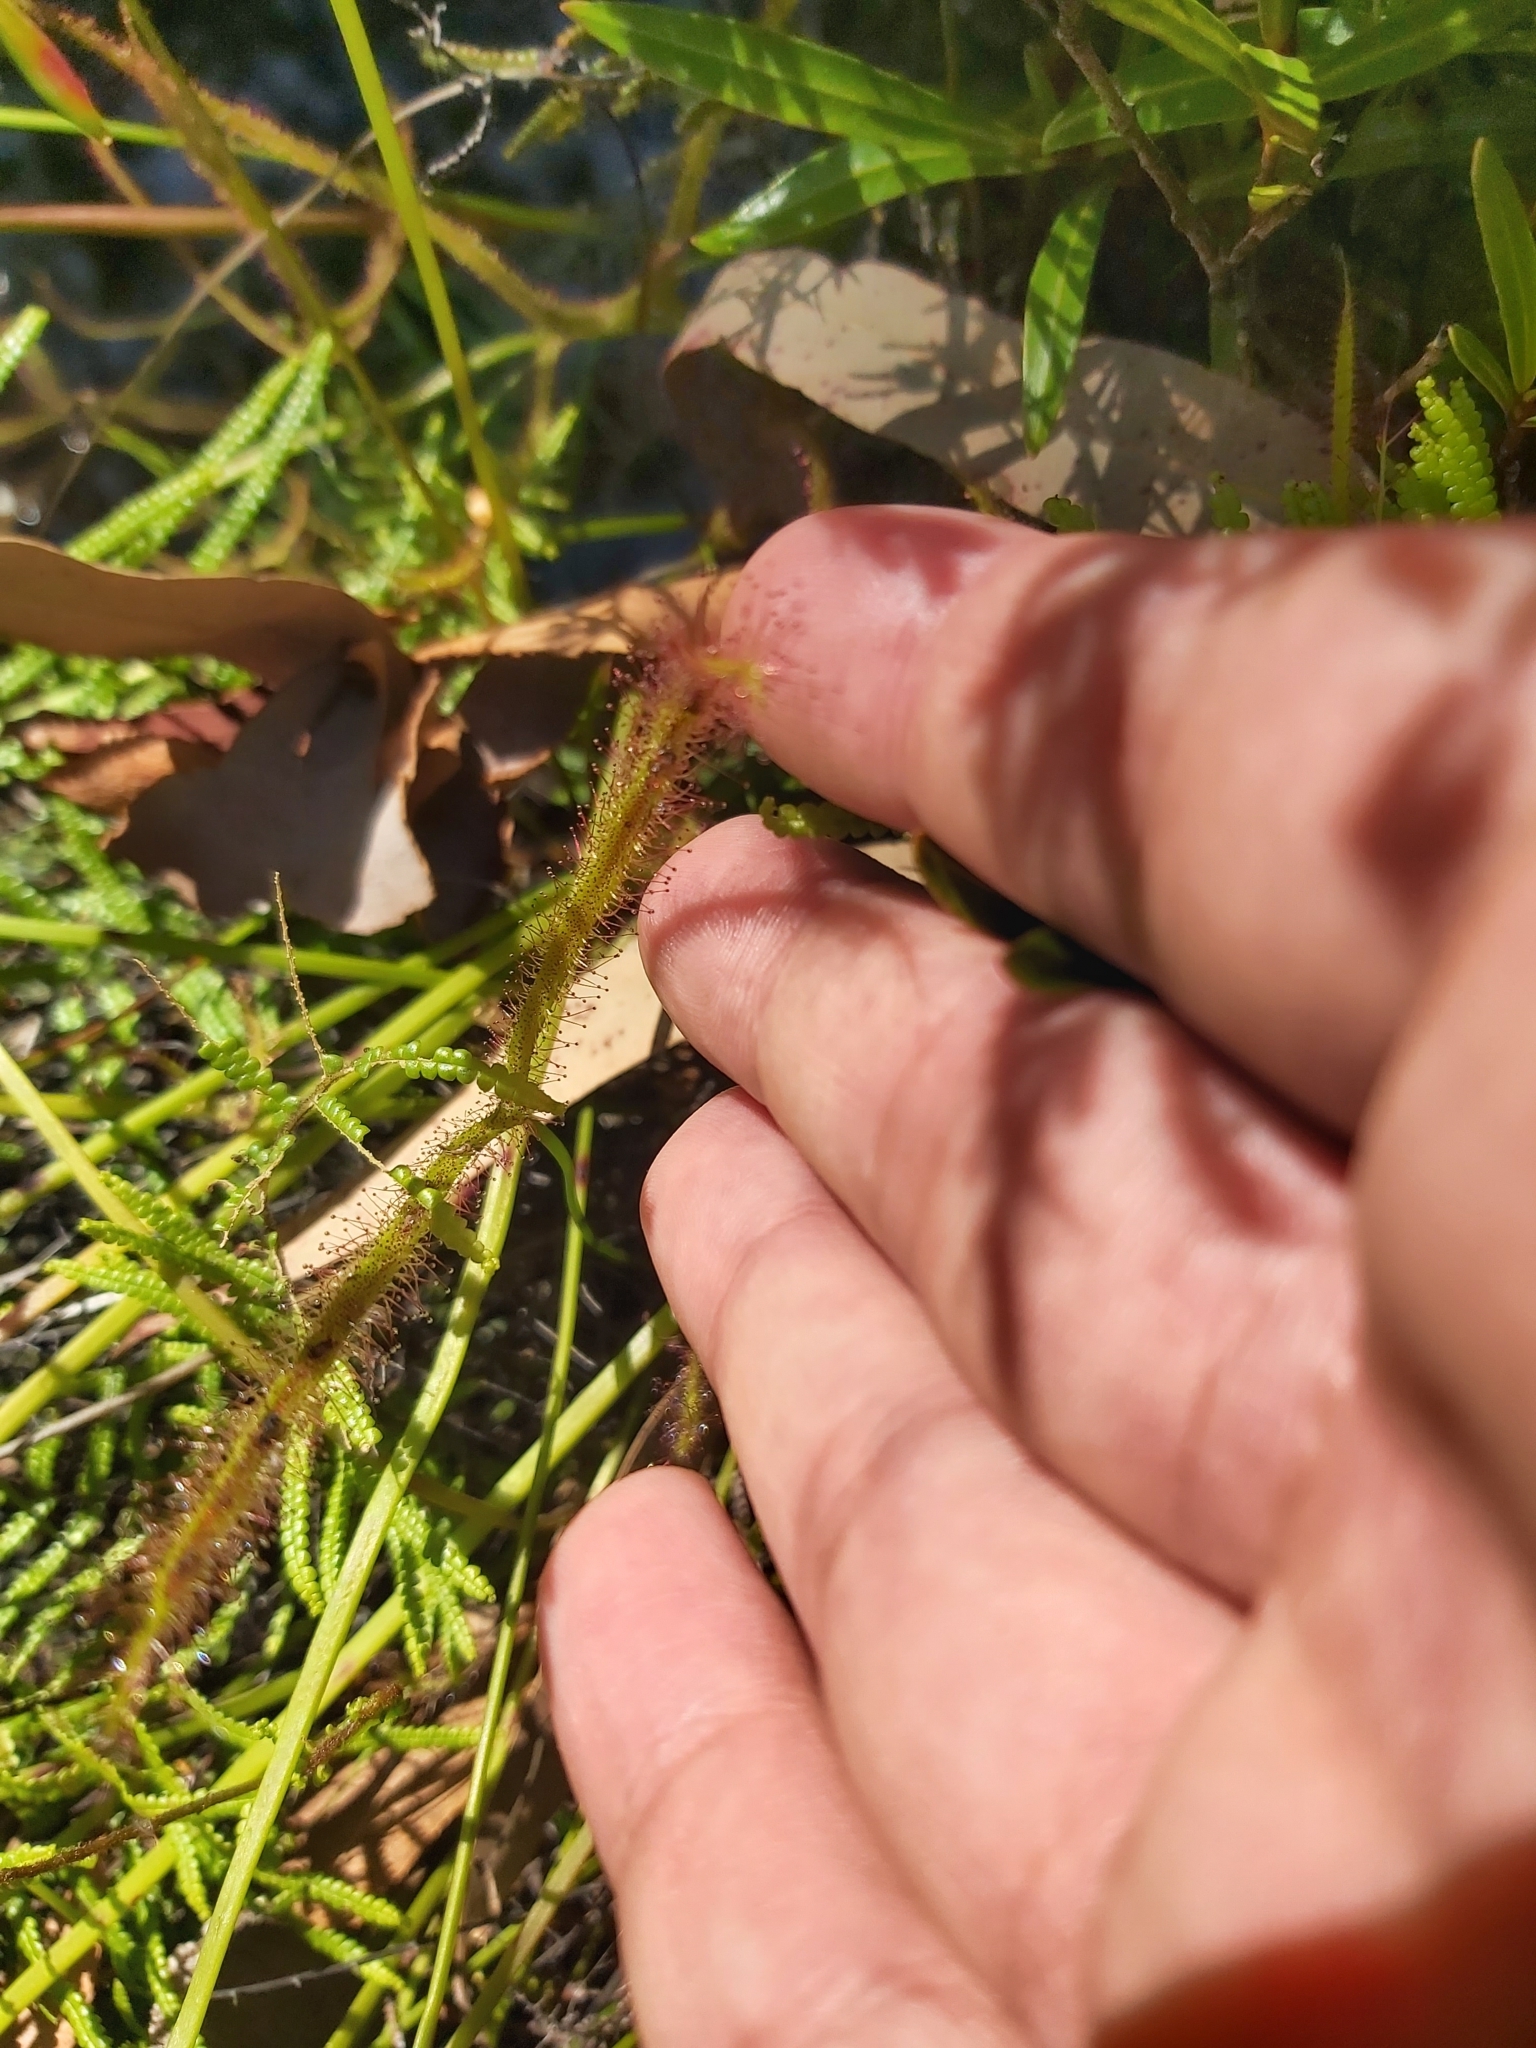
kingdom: Plantae
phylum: Tracheophyta
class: Magnoliopsida
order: Caryophyllales
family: Droseraceae
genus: Drosera
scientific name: Drosera binata
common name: Forked sundew
